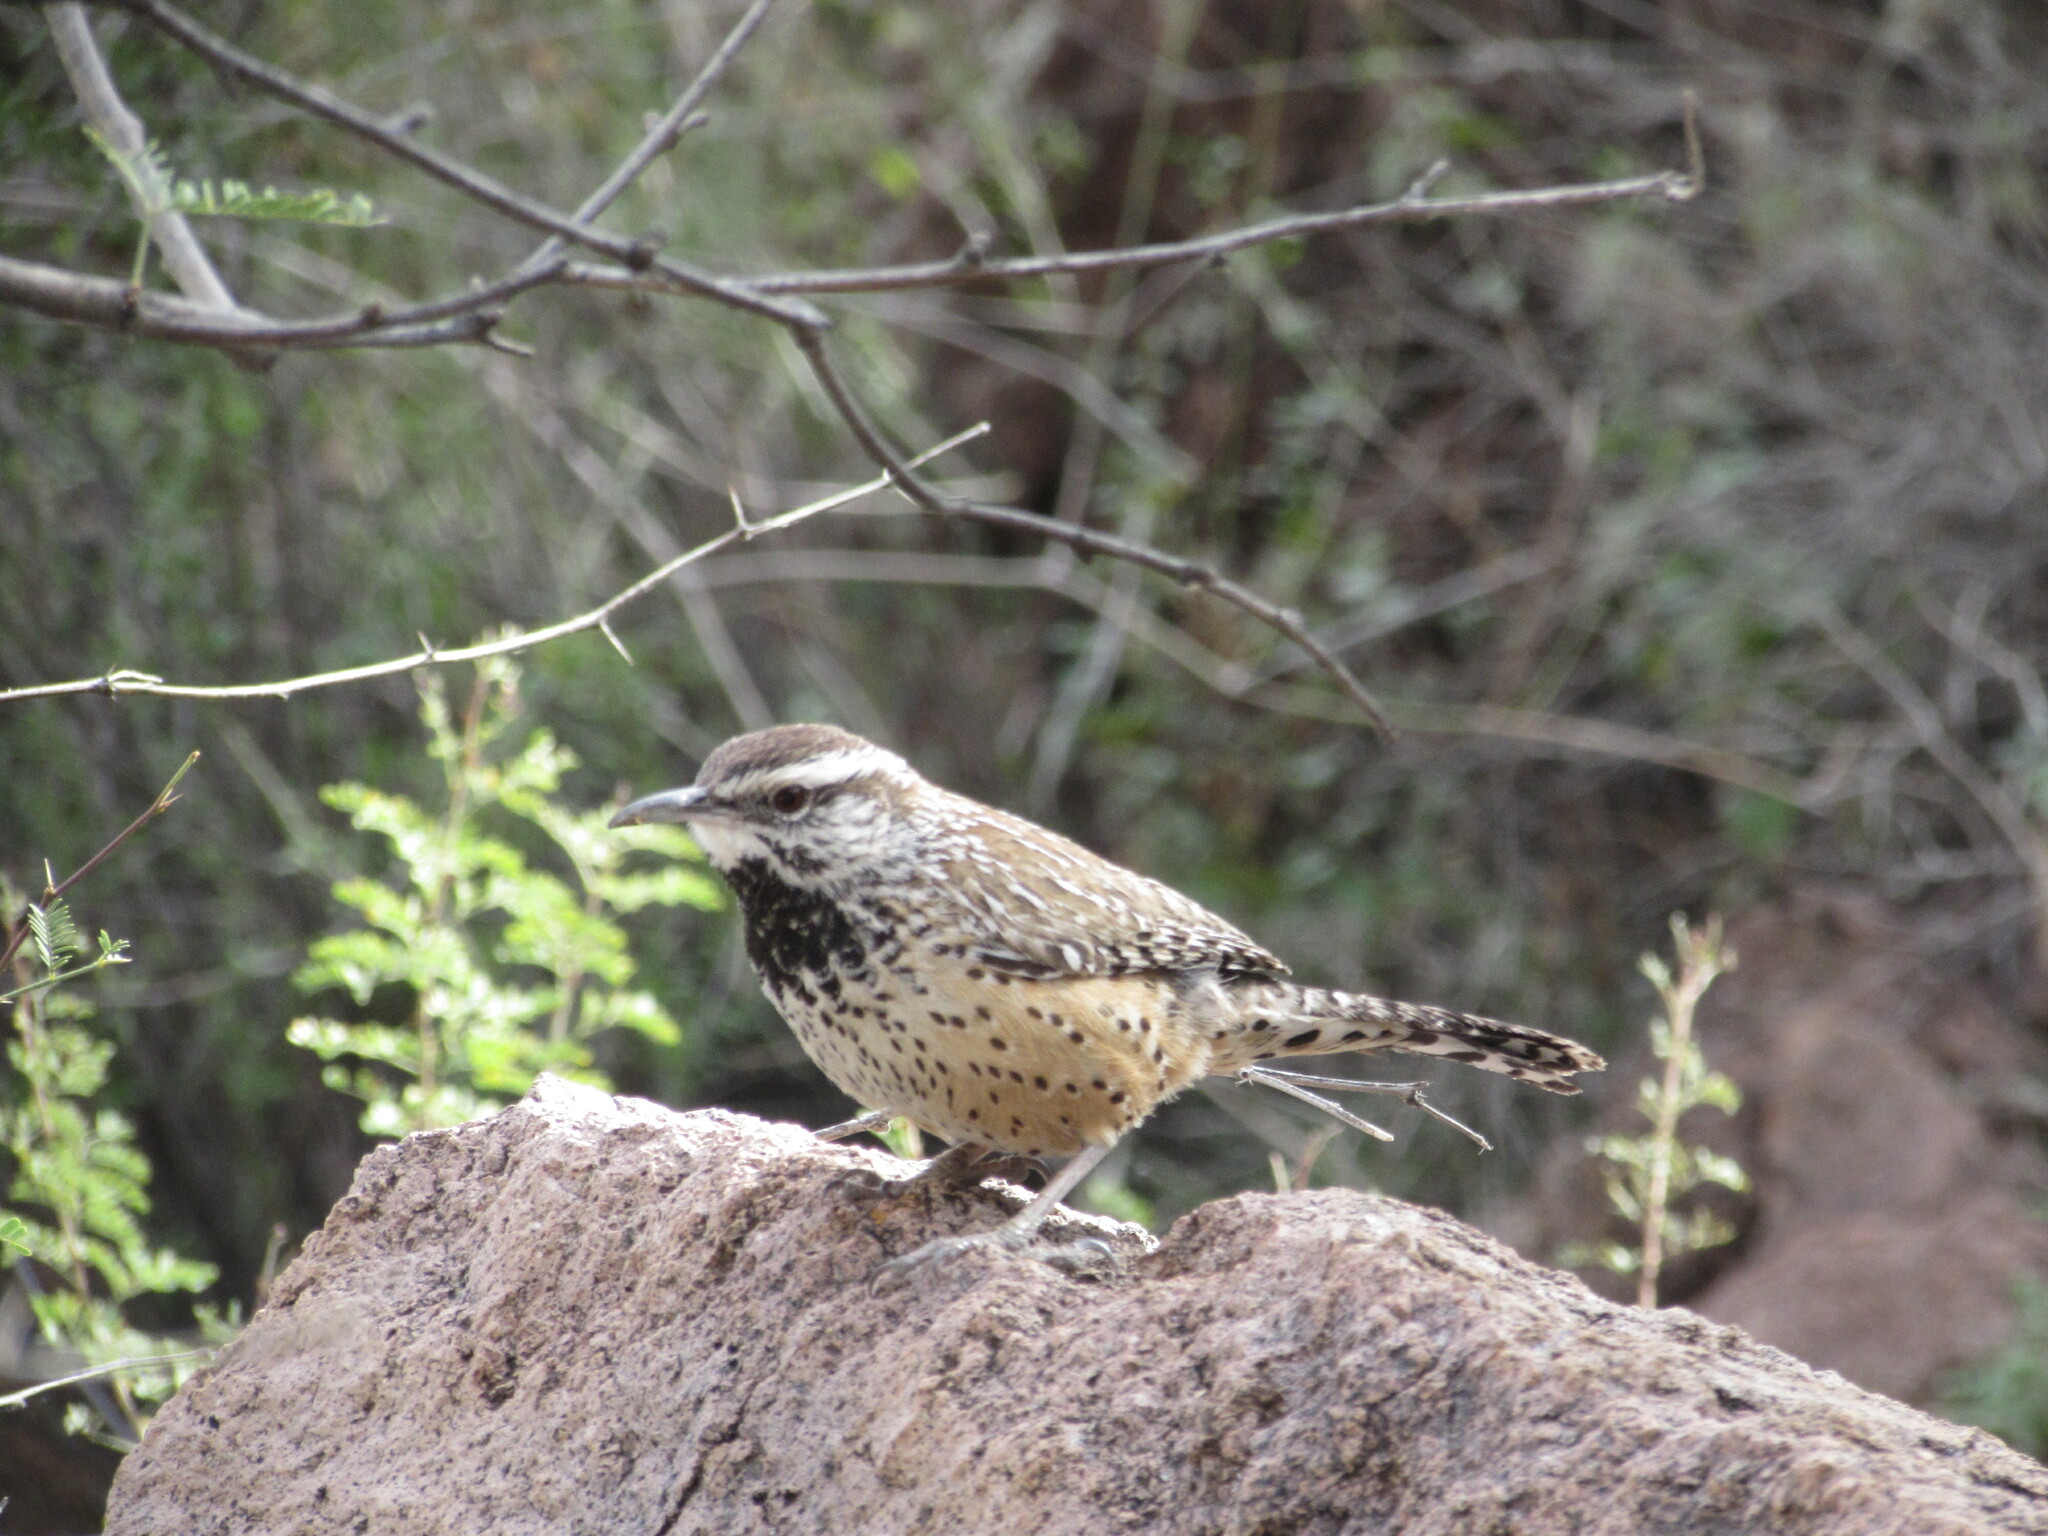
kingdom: Animalia
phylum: Chordata
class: Aves
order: Passeriformes
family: Troglodytidae
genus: Campylorhynchus
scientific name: Campylorhynchus brunneicapillus
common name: Cactus wren
